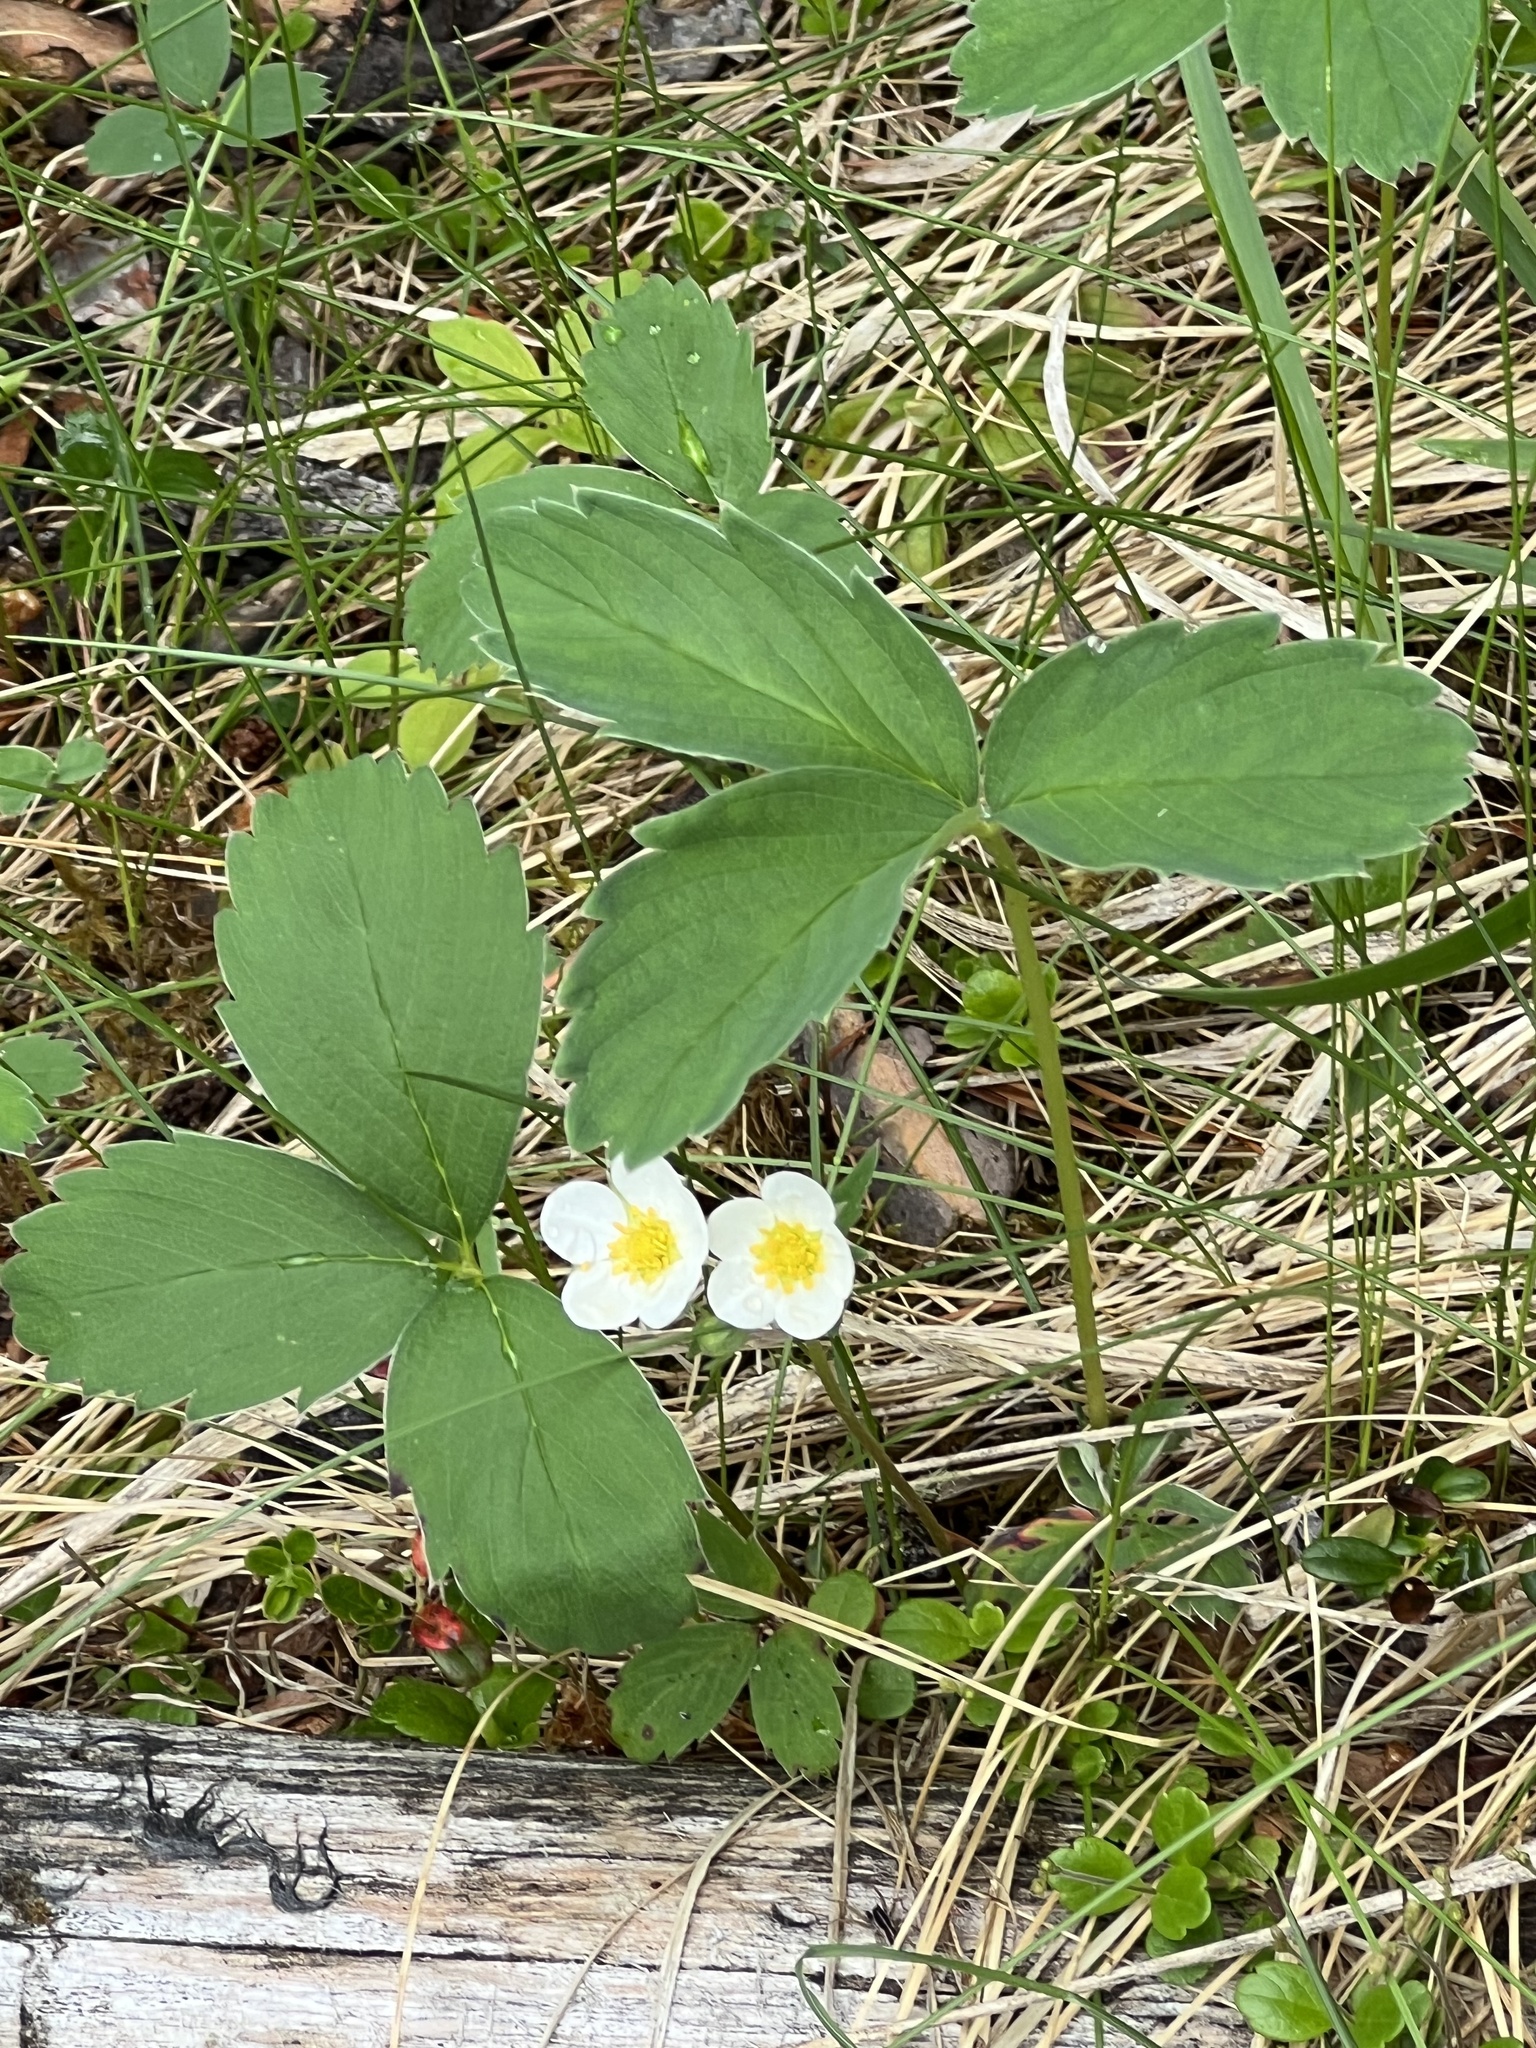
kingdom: Plantae
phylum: Tracheophyta
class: Magnoliopsida
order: Rosales
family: Rosaceae
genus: Fragaria
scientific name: Fragaria virginiana
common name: Thickleaved wild strawberry
